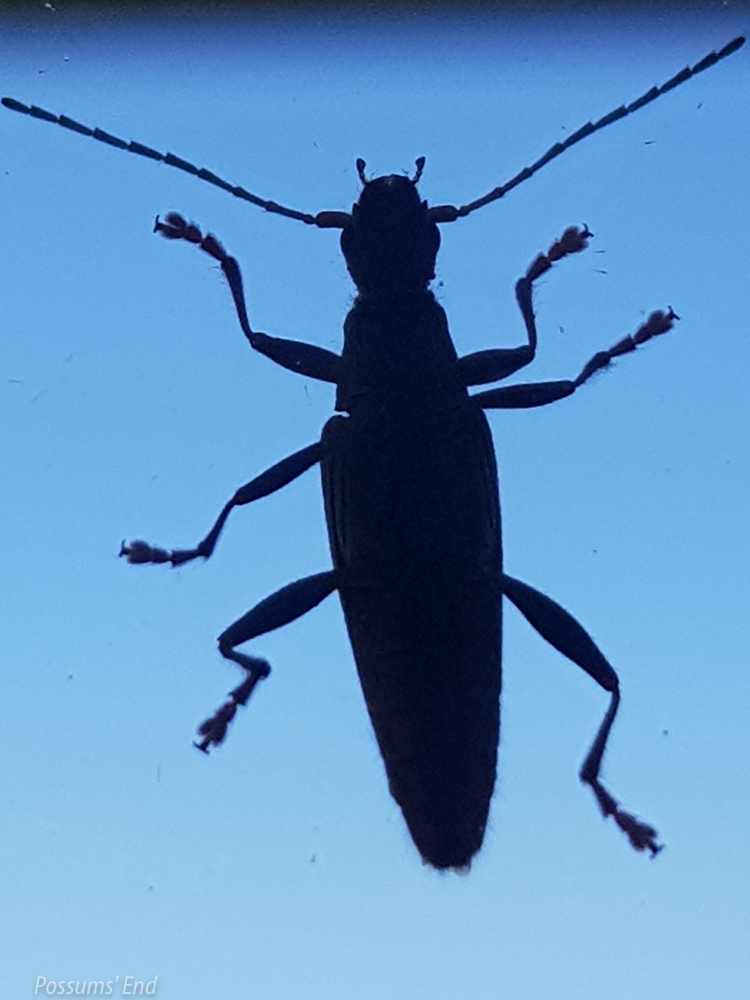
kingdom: Animalia
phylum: Arthropoda
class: Insecta
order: Coleoptera
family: Cerambycidae
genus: Coptomma
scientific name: Coptomma sulcatum
